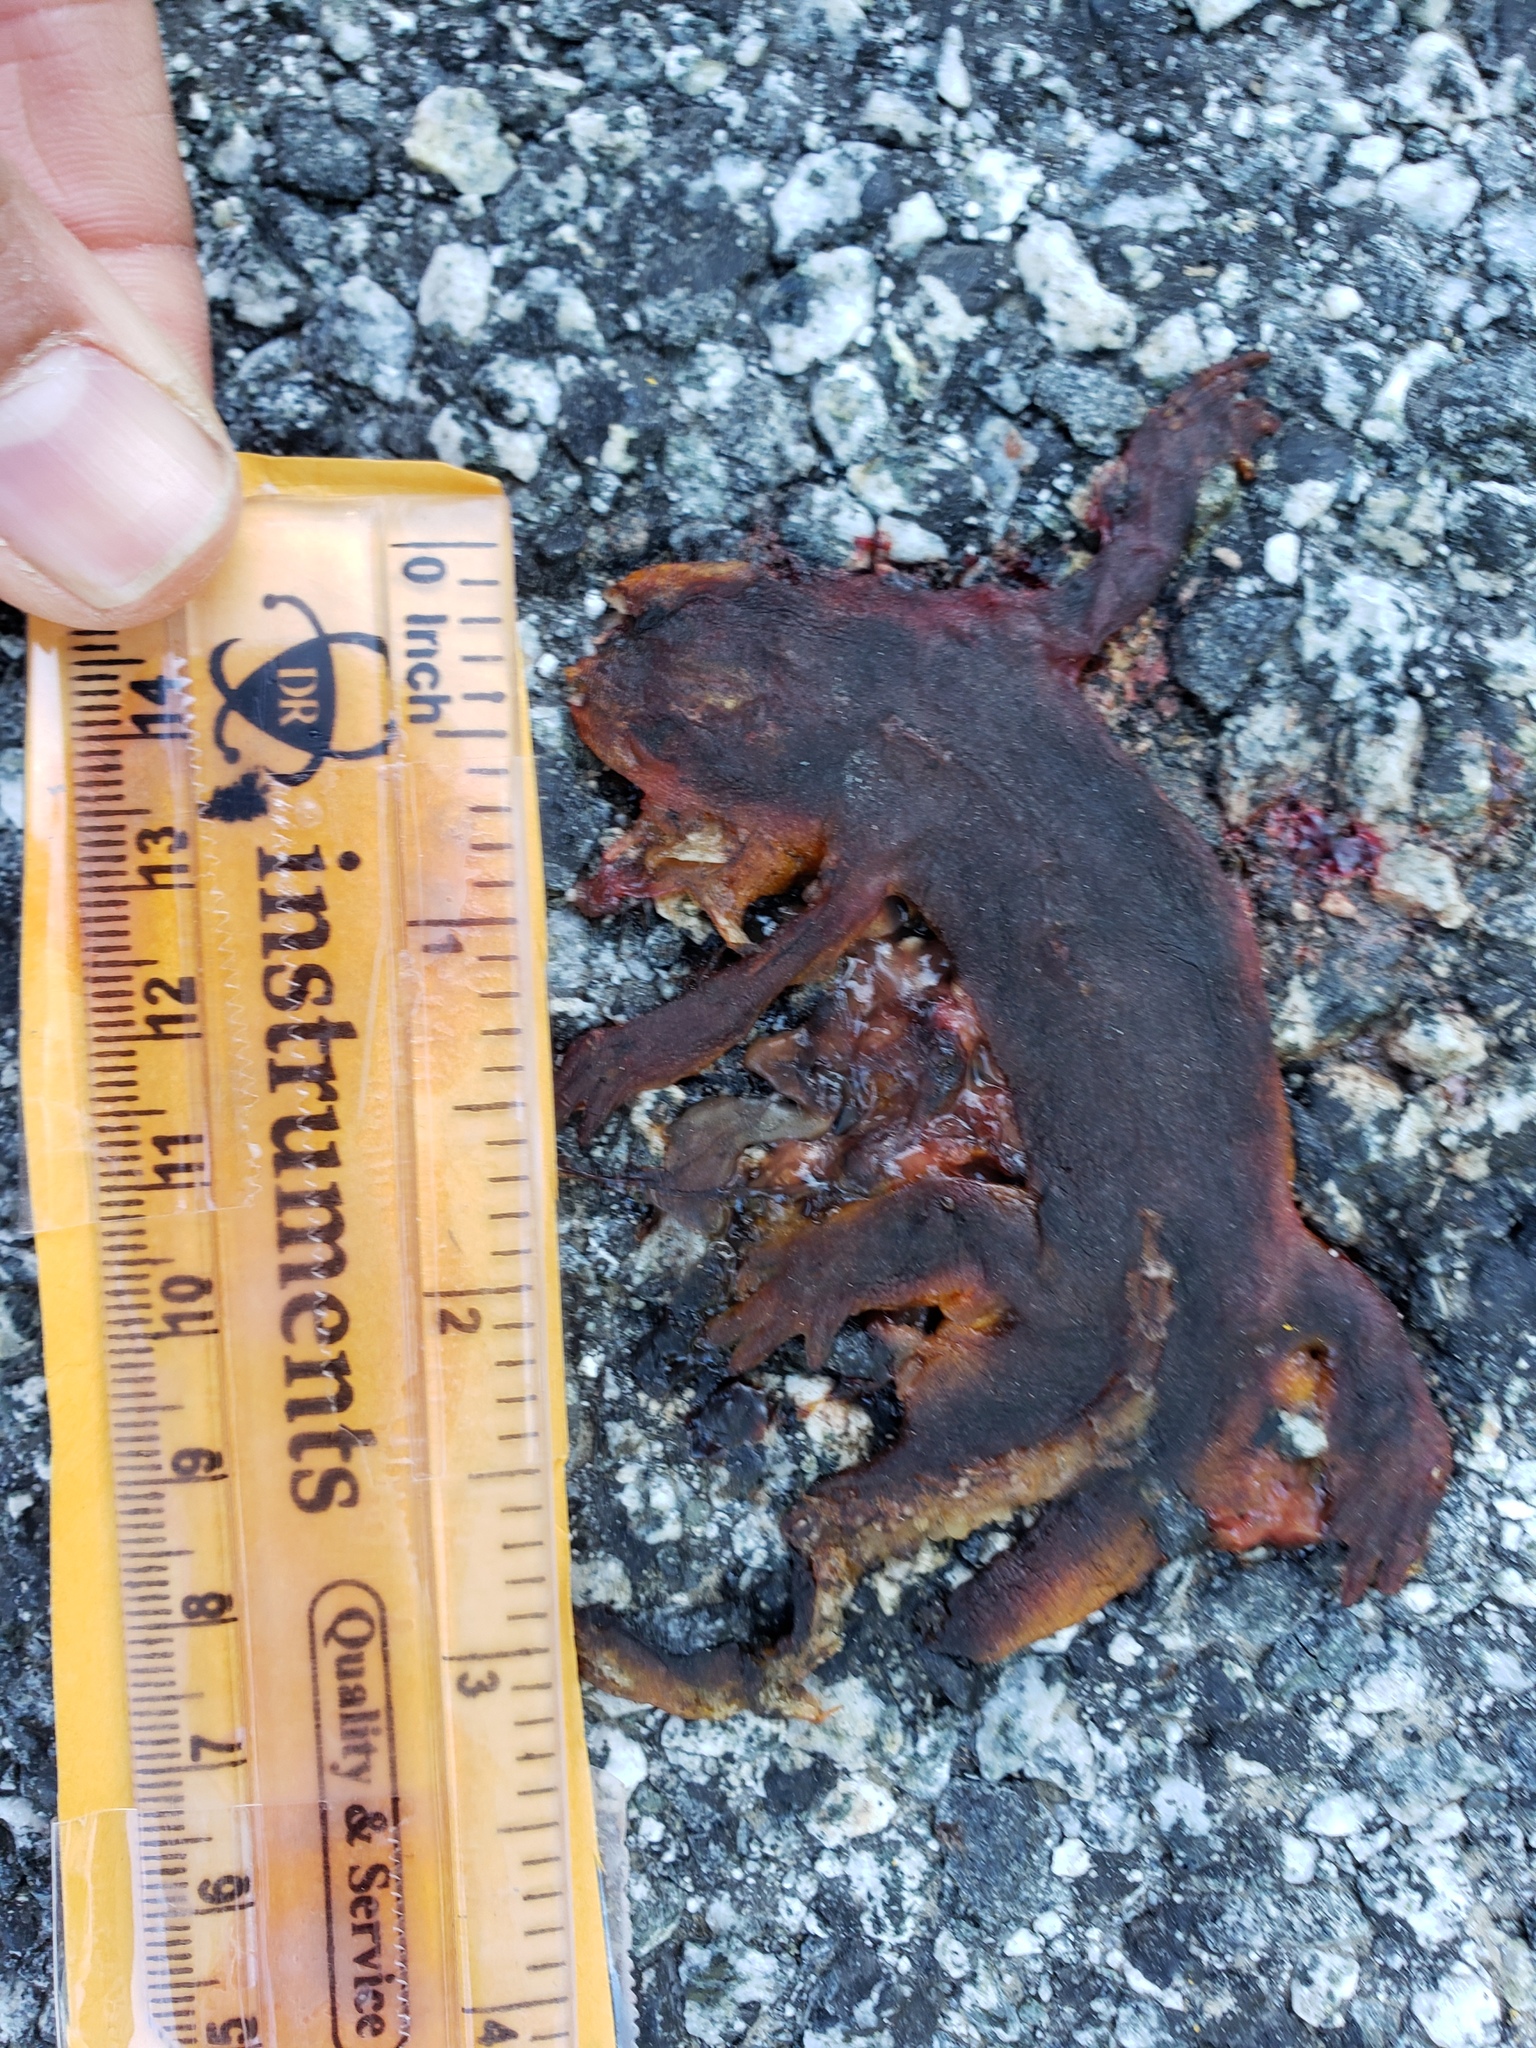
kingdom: Animalia
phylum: Chordata
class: Amphibia
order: Caudata
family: Salamandridae
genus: Taricha
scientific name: Taricha
